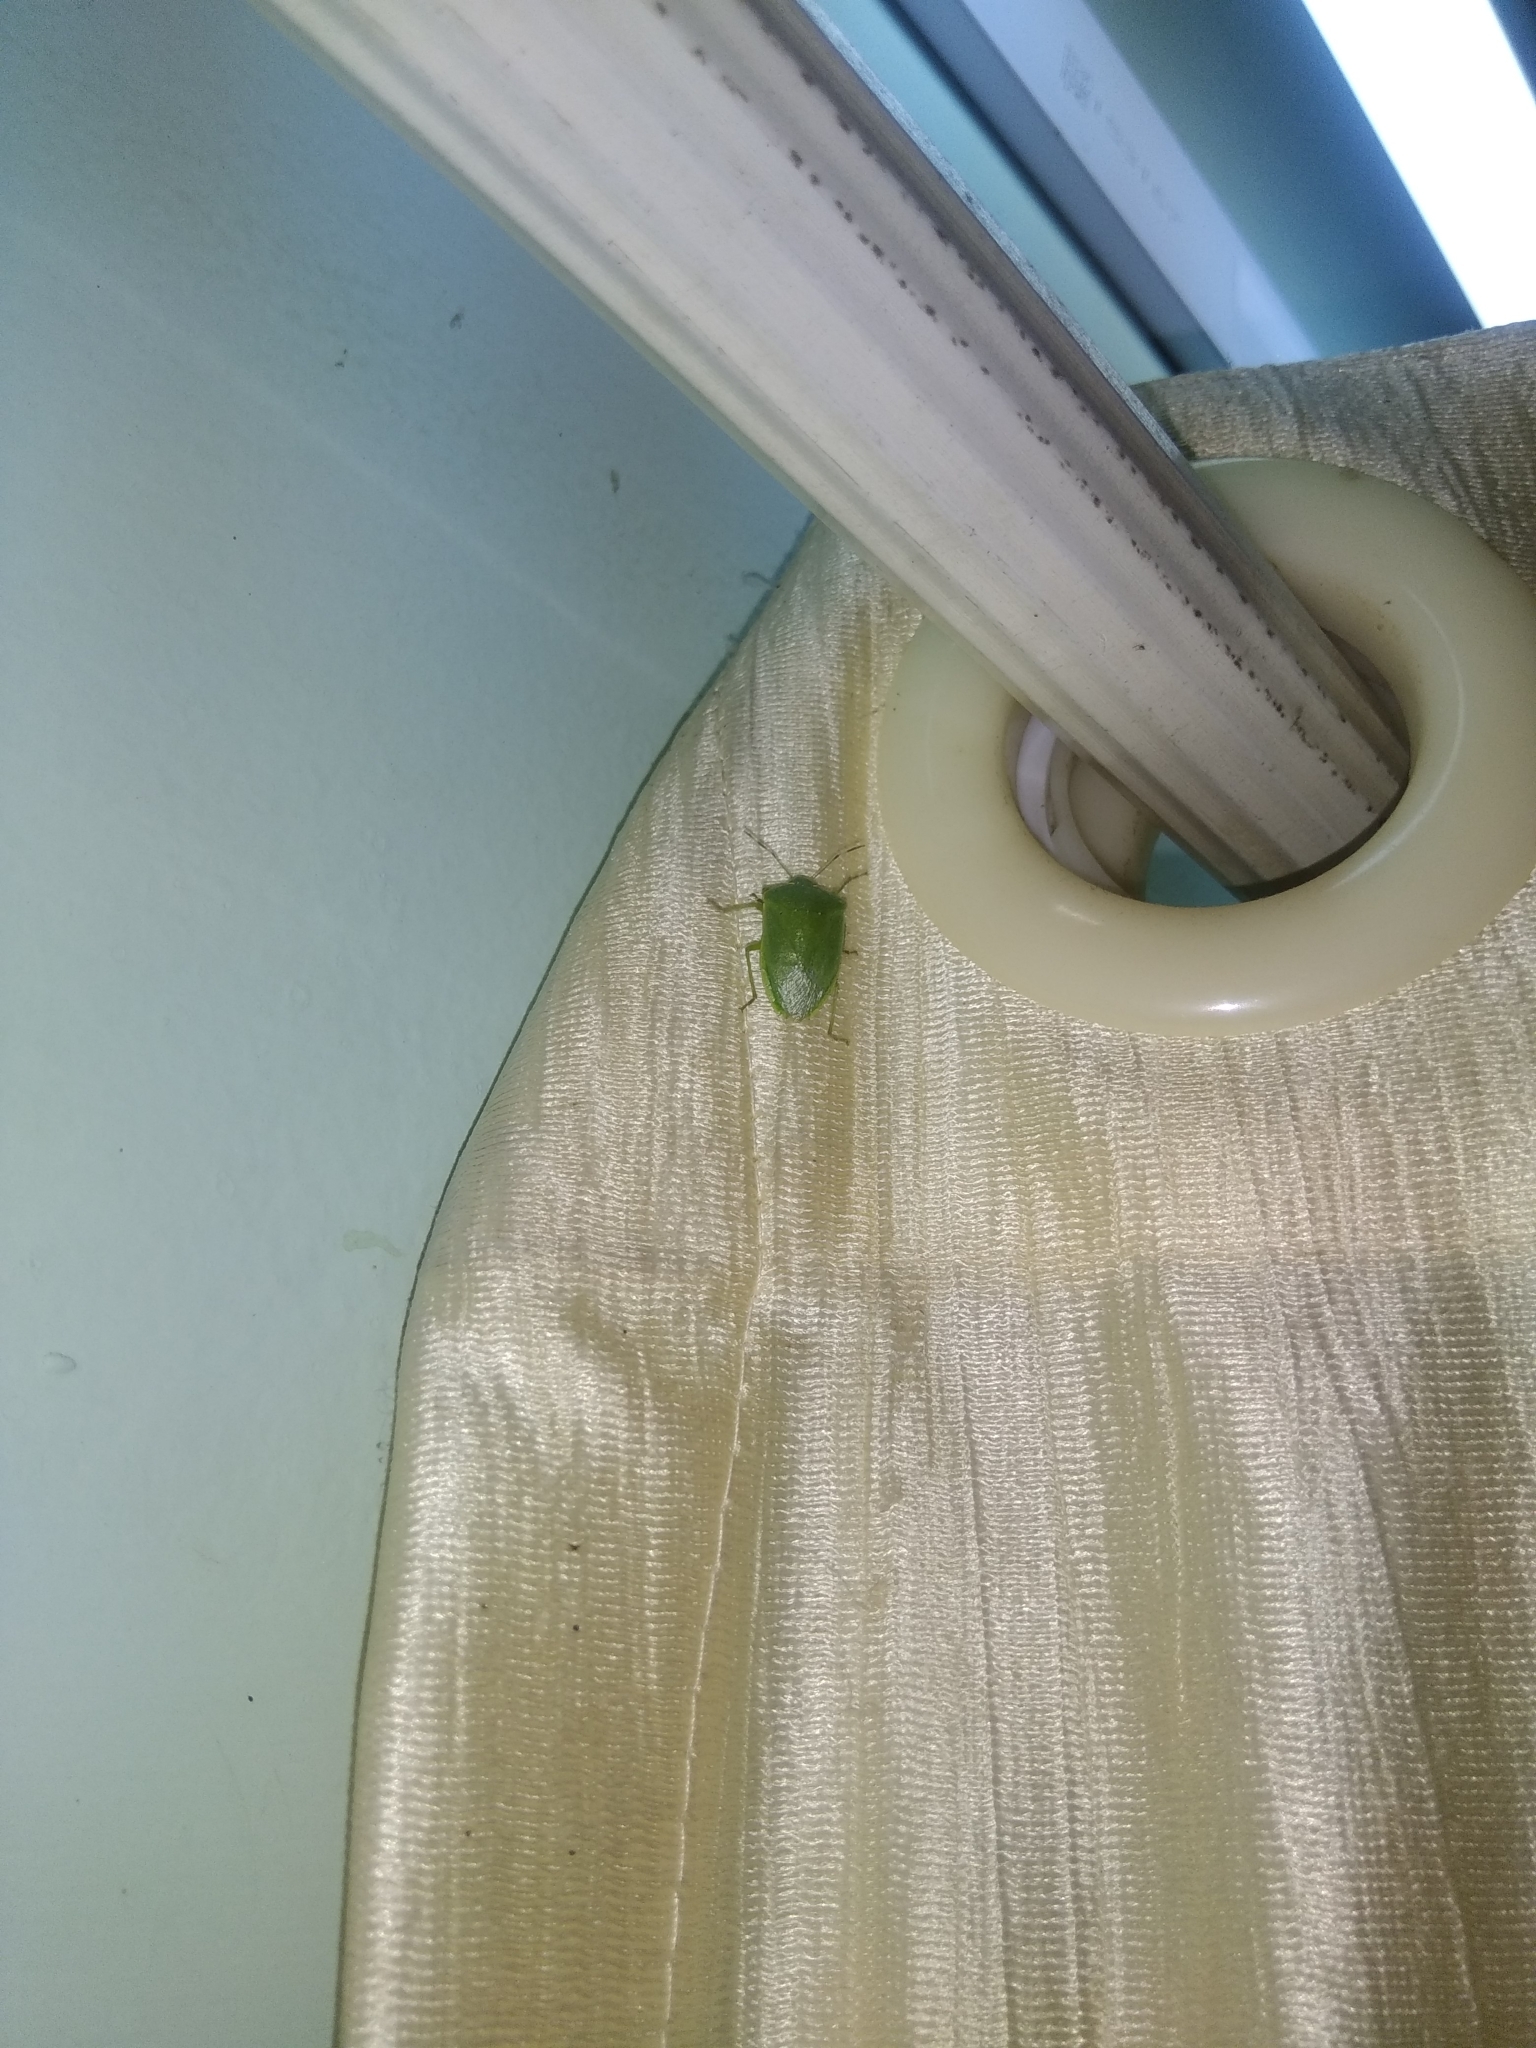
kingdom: Animalia
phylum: Arthropoda
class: Insecta
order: Hemiptera
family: Pentatomidae
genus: Nezara
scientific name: Nezara viridula
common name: Southern green stink bug
